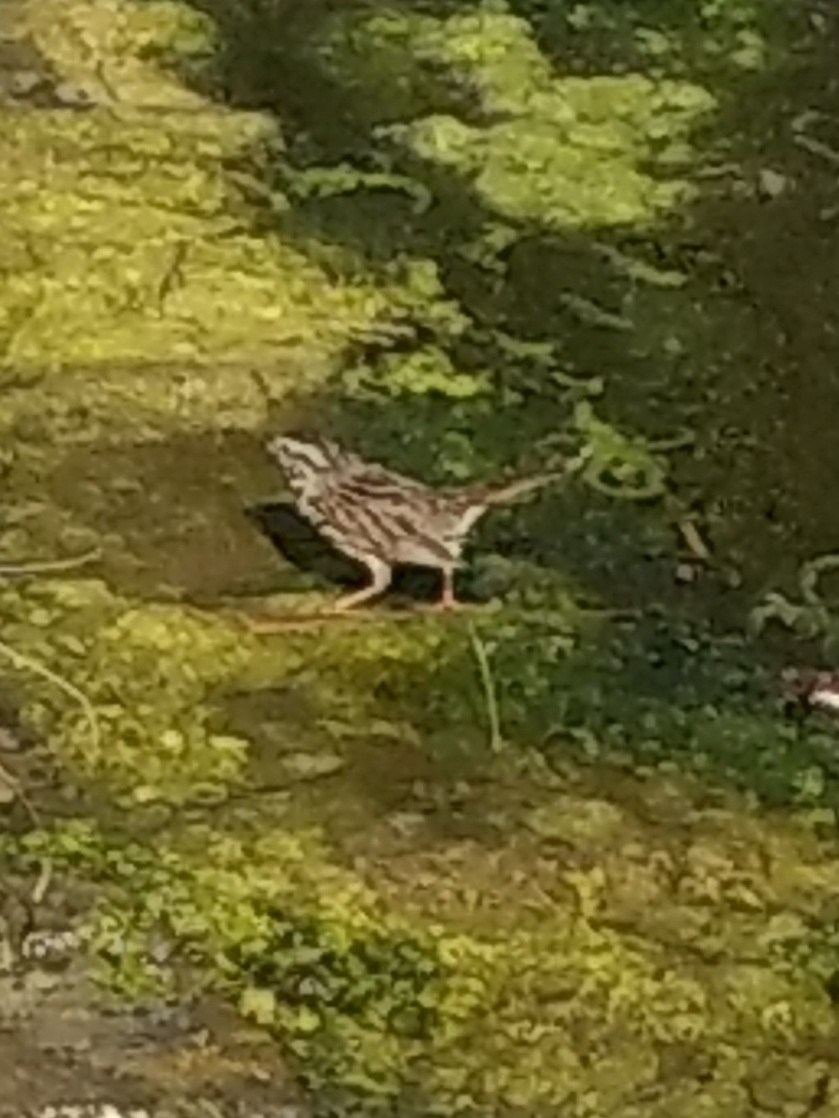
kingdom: Animalia
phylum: Chordata
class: Aves
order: Passeriformes
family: Passerellidae
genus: Melospiza
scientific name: Melospiza melodia
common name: Song sparrow
